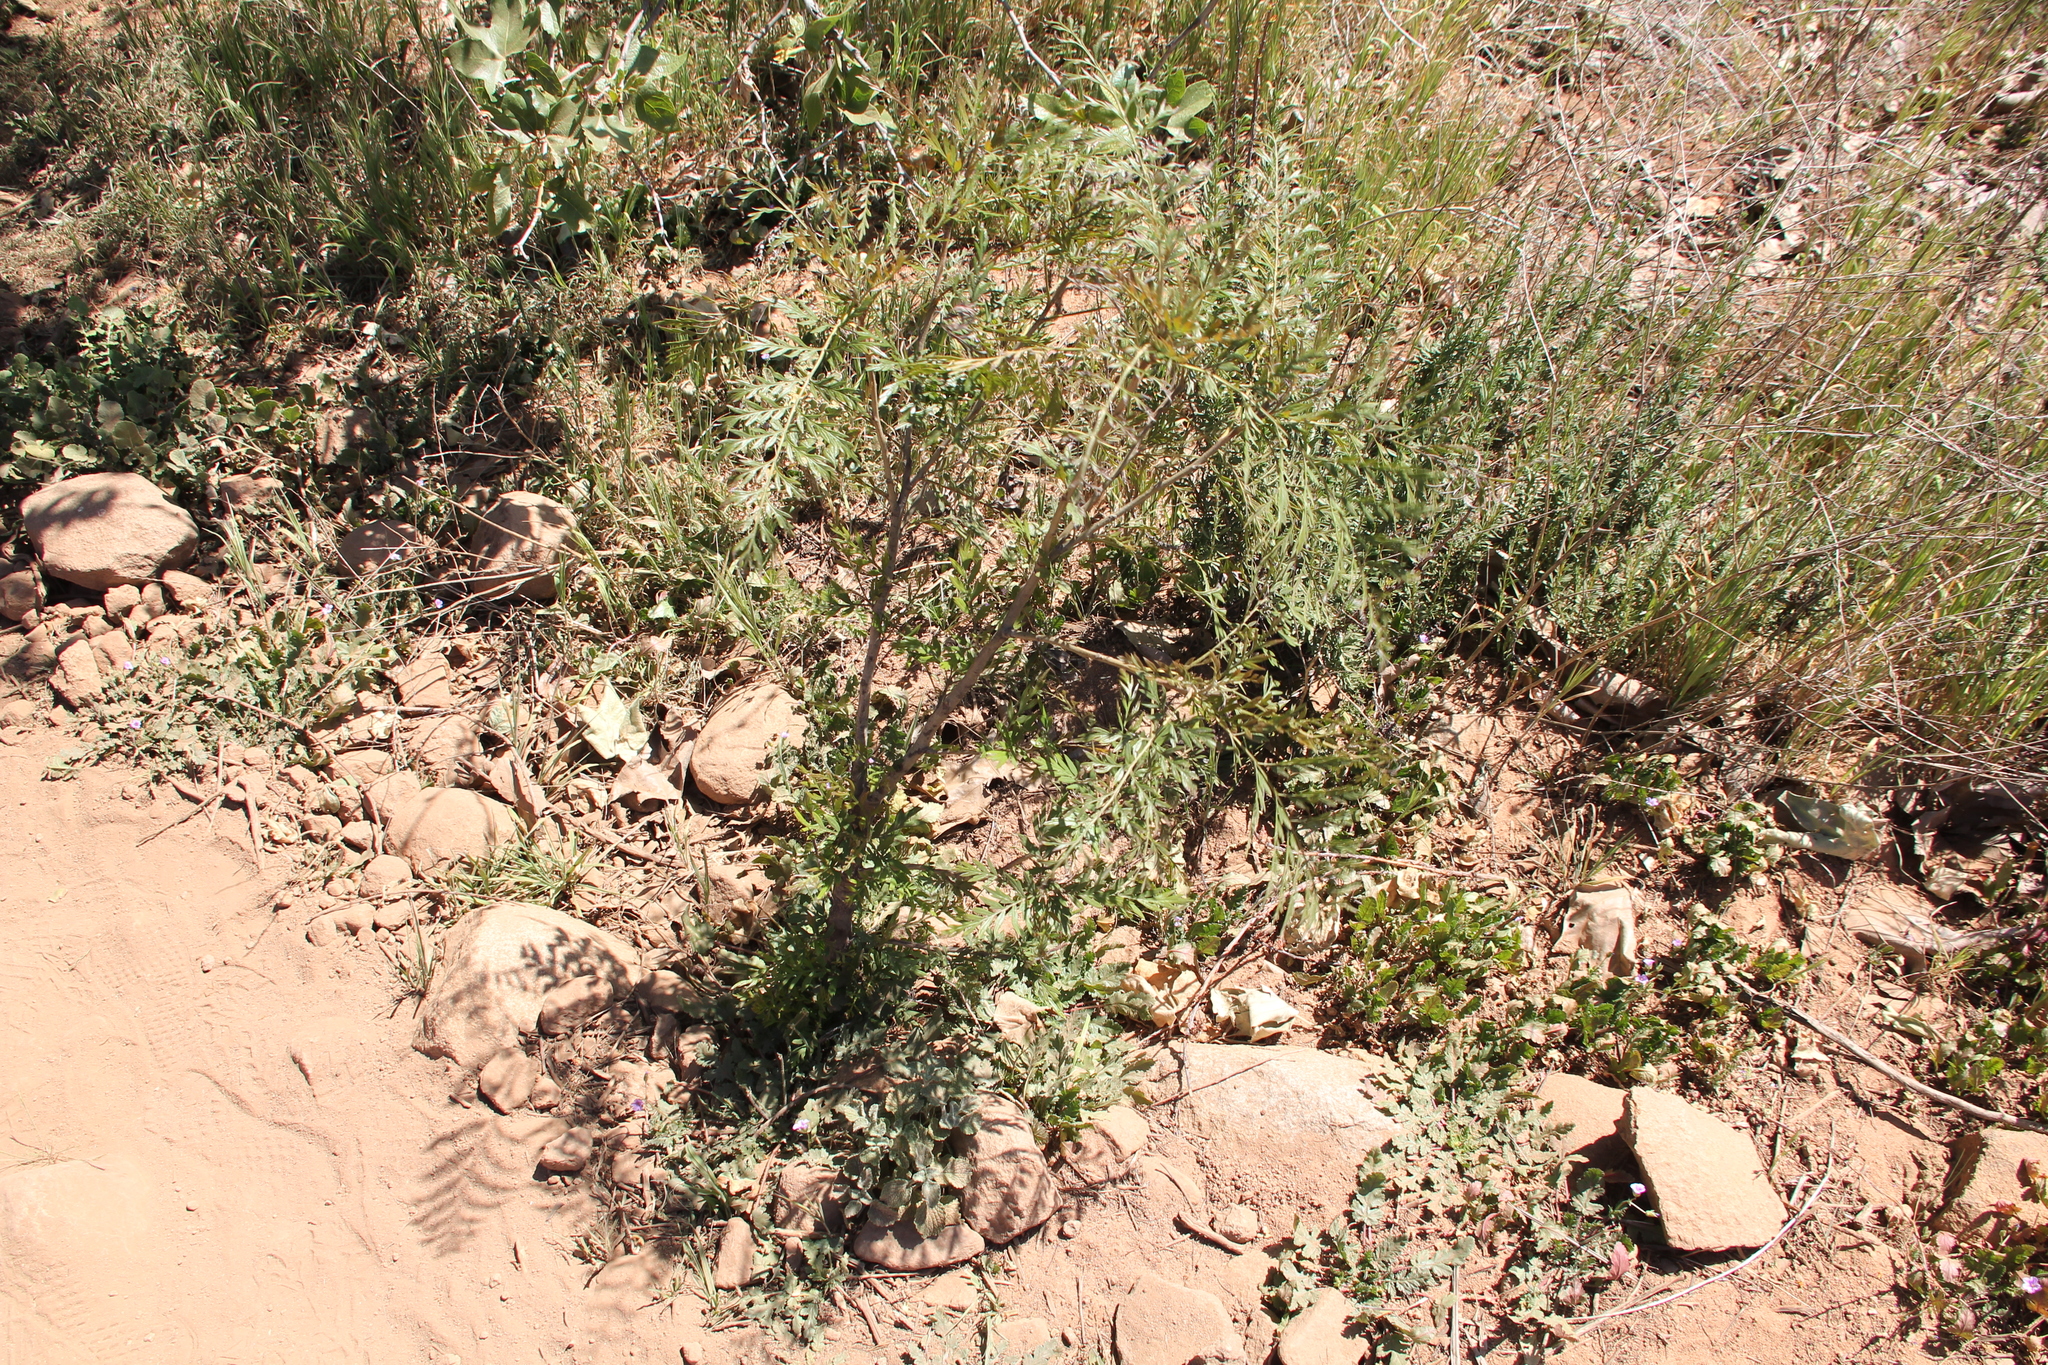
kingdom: Plantae
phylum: Tracheophyta
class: Magnoliopsida
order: Proteales
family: Proteaceae
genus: Grevillea
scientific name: Grevillea robusta
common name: Silkoak
